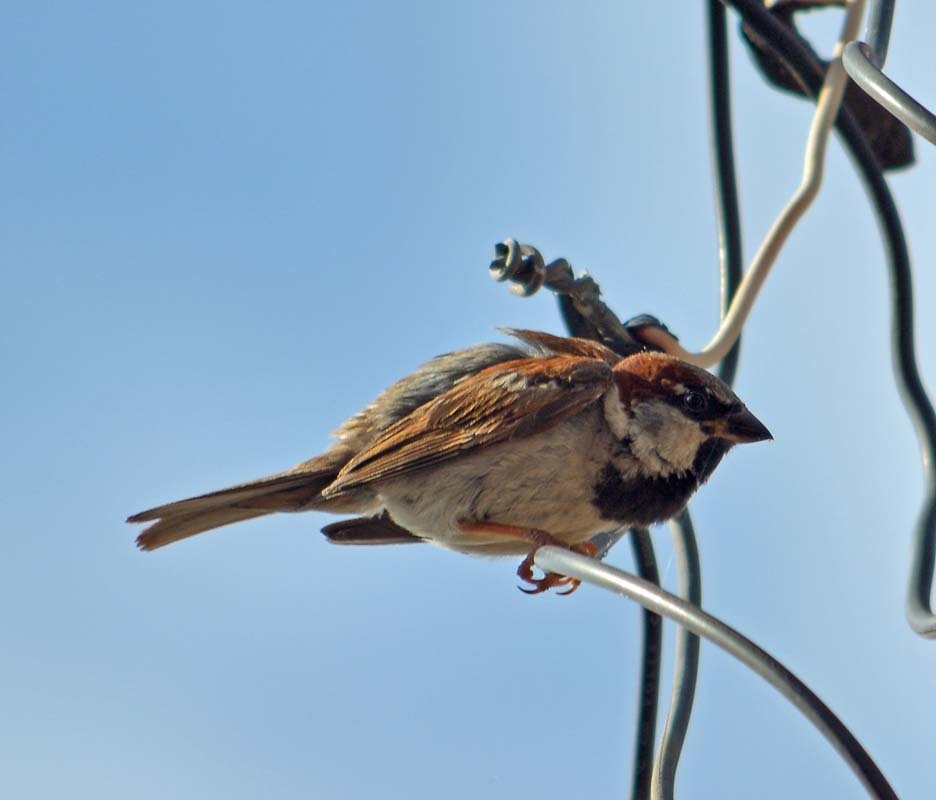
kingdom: Animalia
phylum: Chordata
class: Aves
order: Passeriformes
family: Passeridae
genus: Passer
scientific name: Passer domesticus
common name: House sparrow
